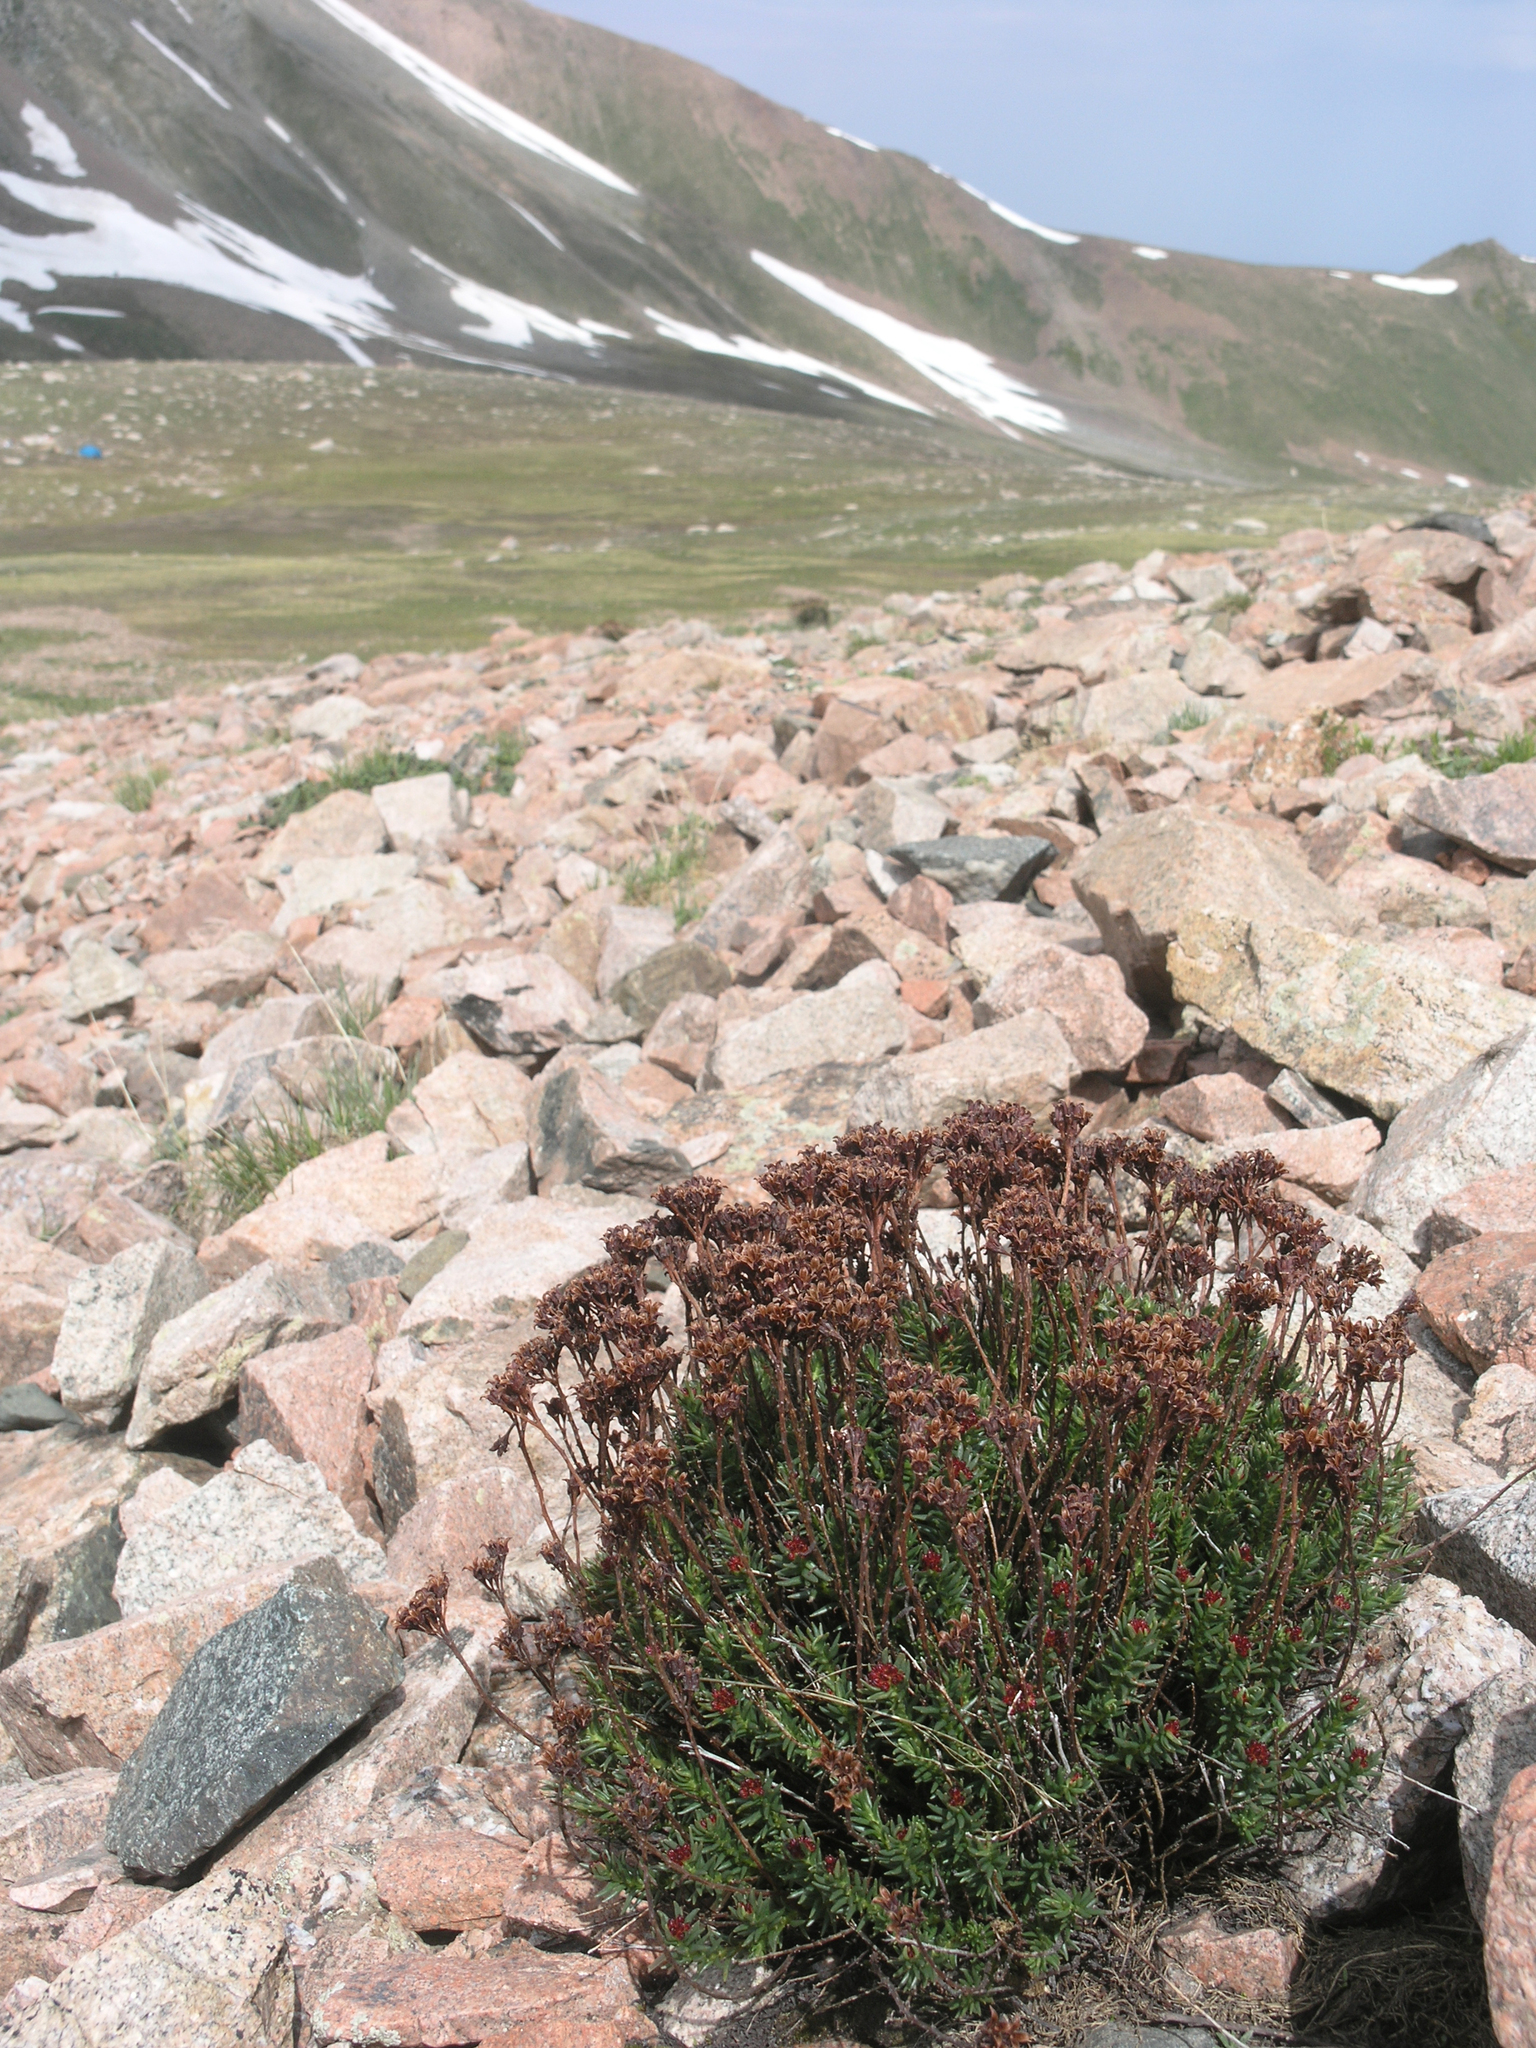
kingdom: Plantae
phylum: Tracheophyta
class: Magnoliopsida
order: Saxifragales
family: Crassulaceae
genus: Rhodiola
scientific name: Rhodiola coccinea
